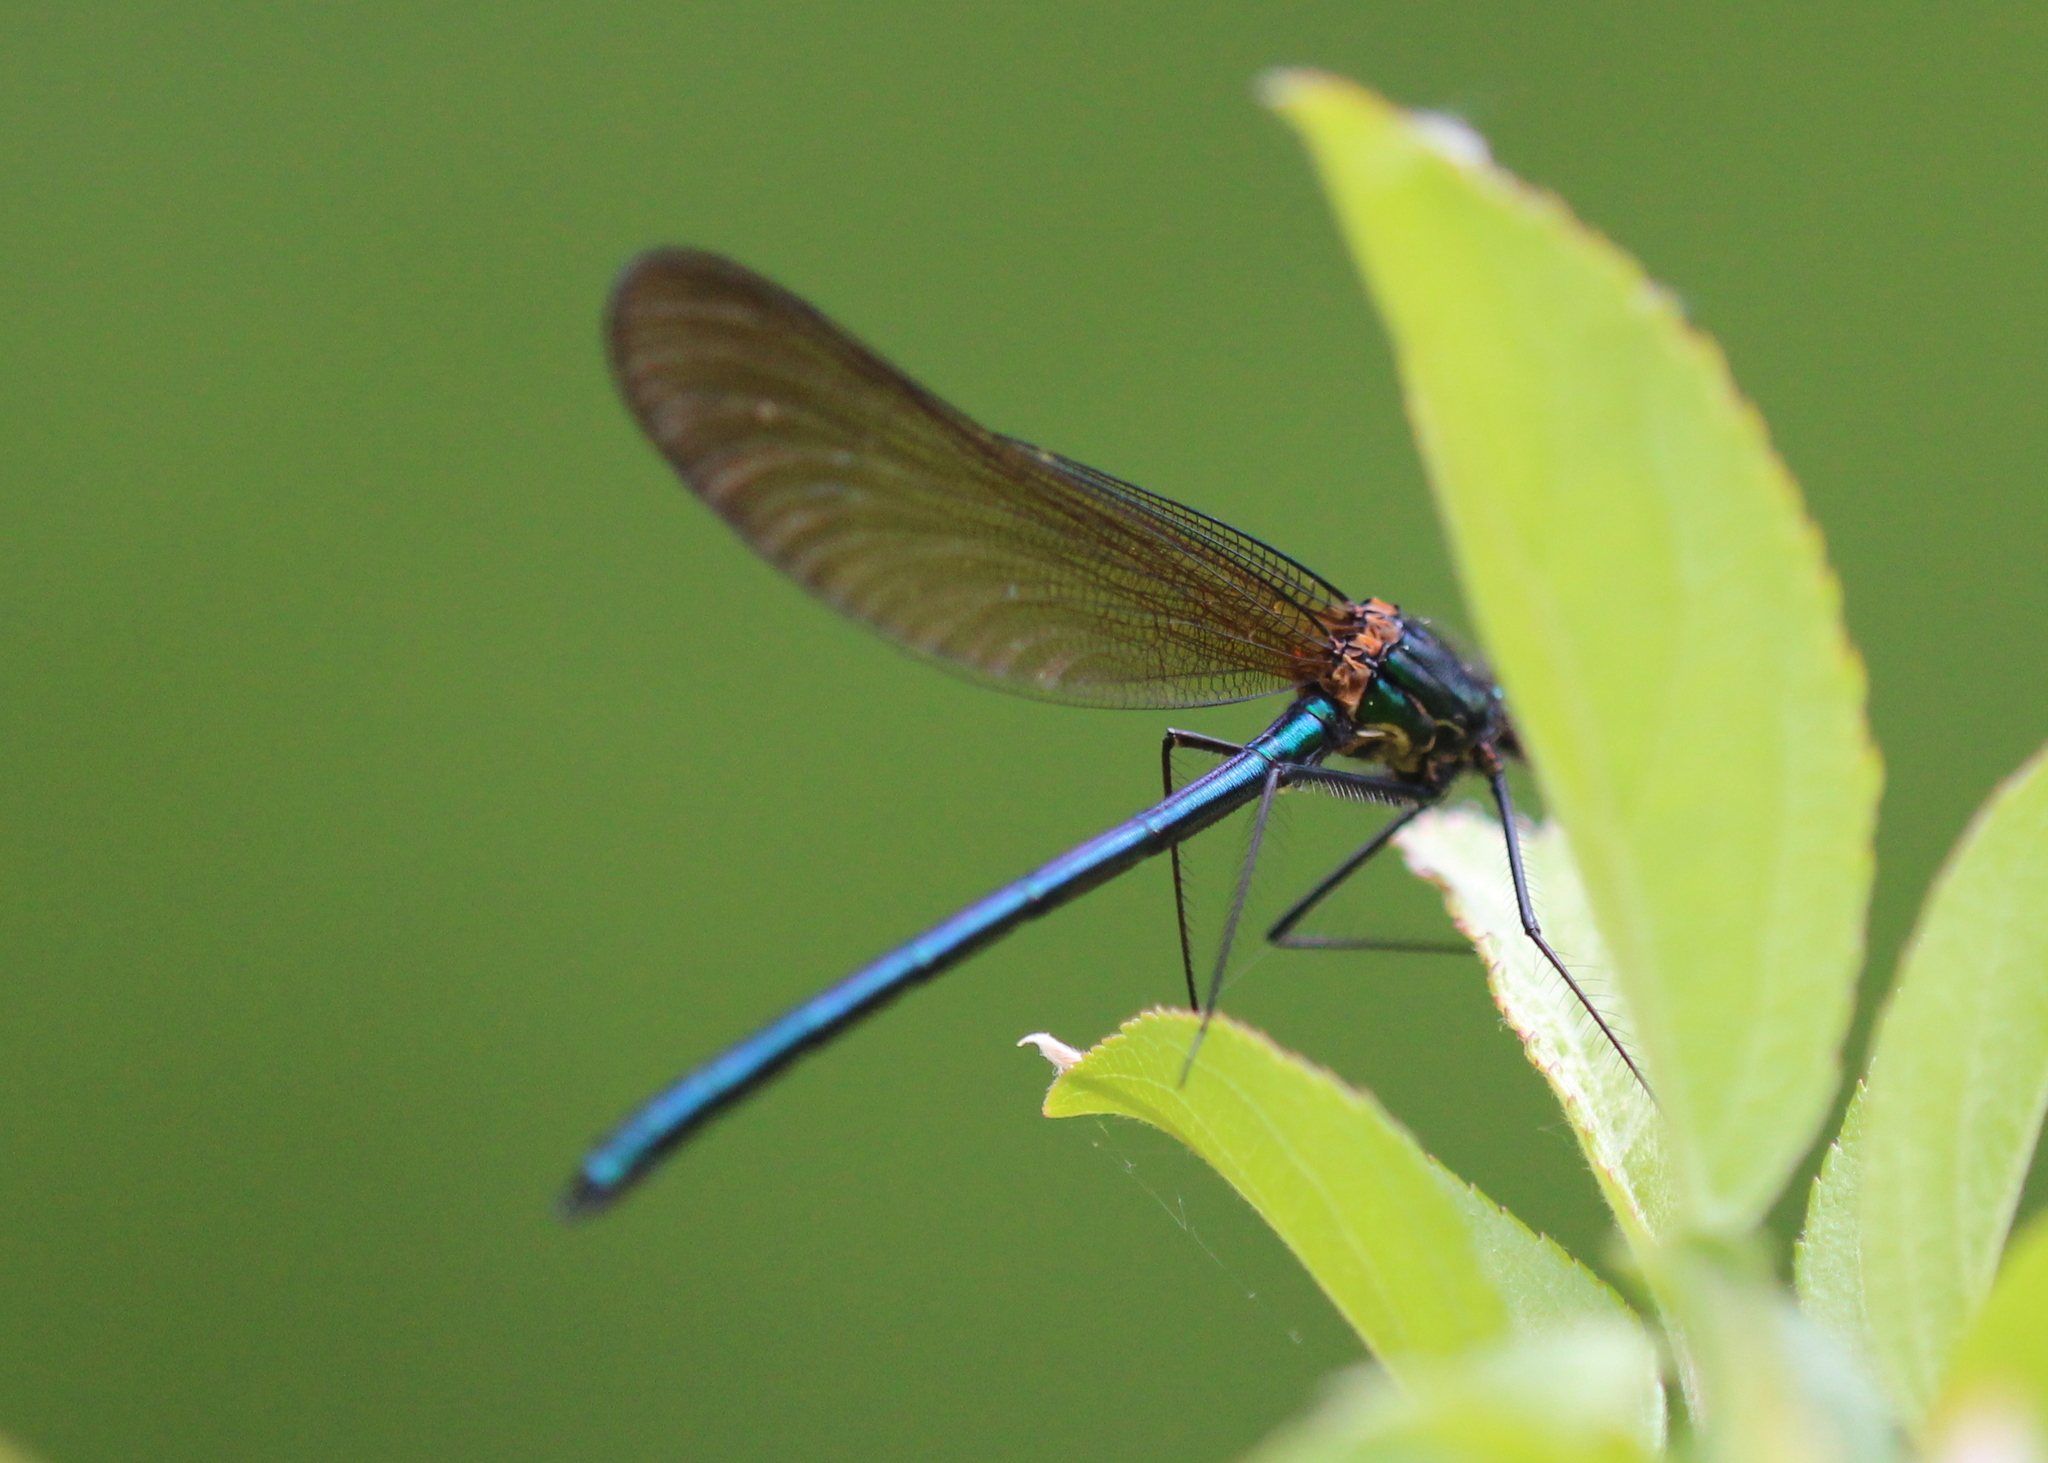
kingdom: Animalia
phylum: Arthropoda
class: Insecta
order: Odonata
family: Calopterygidae
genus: Calopteryx
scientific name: Calopteryx maculata
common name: Ebony jewelwing
